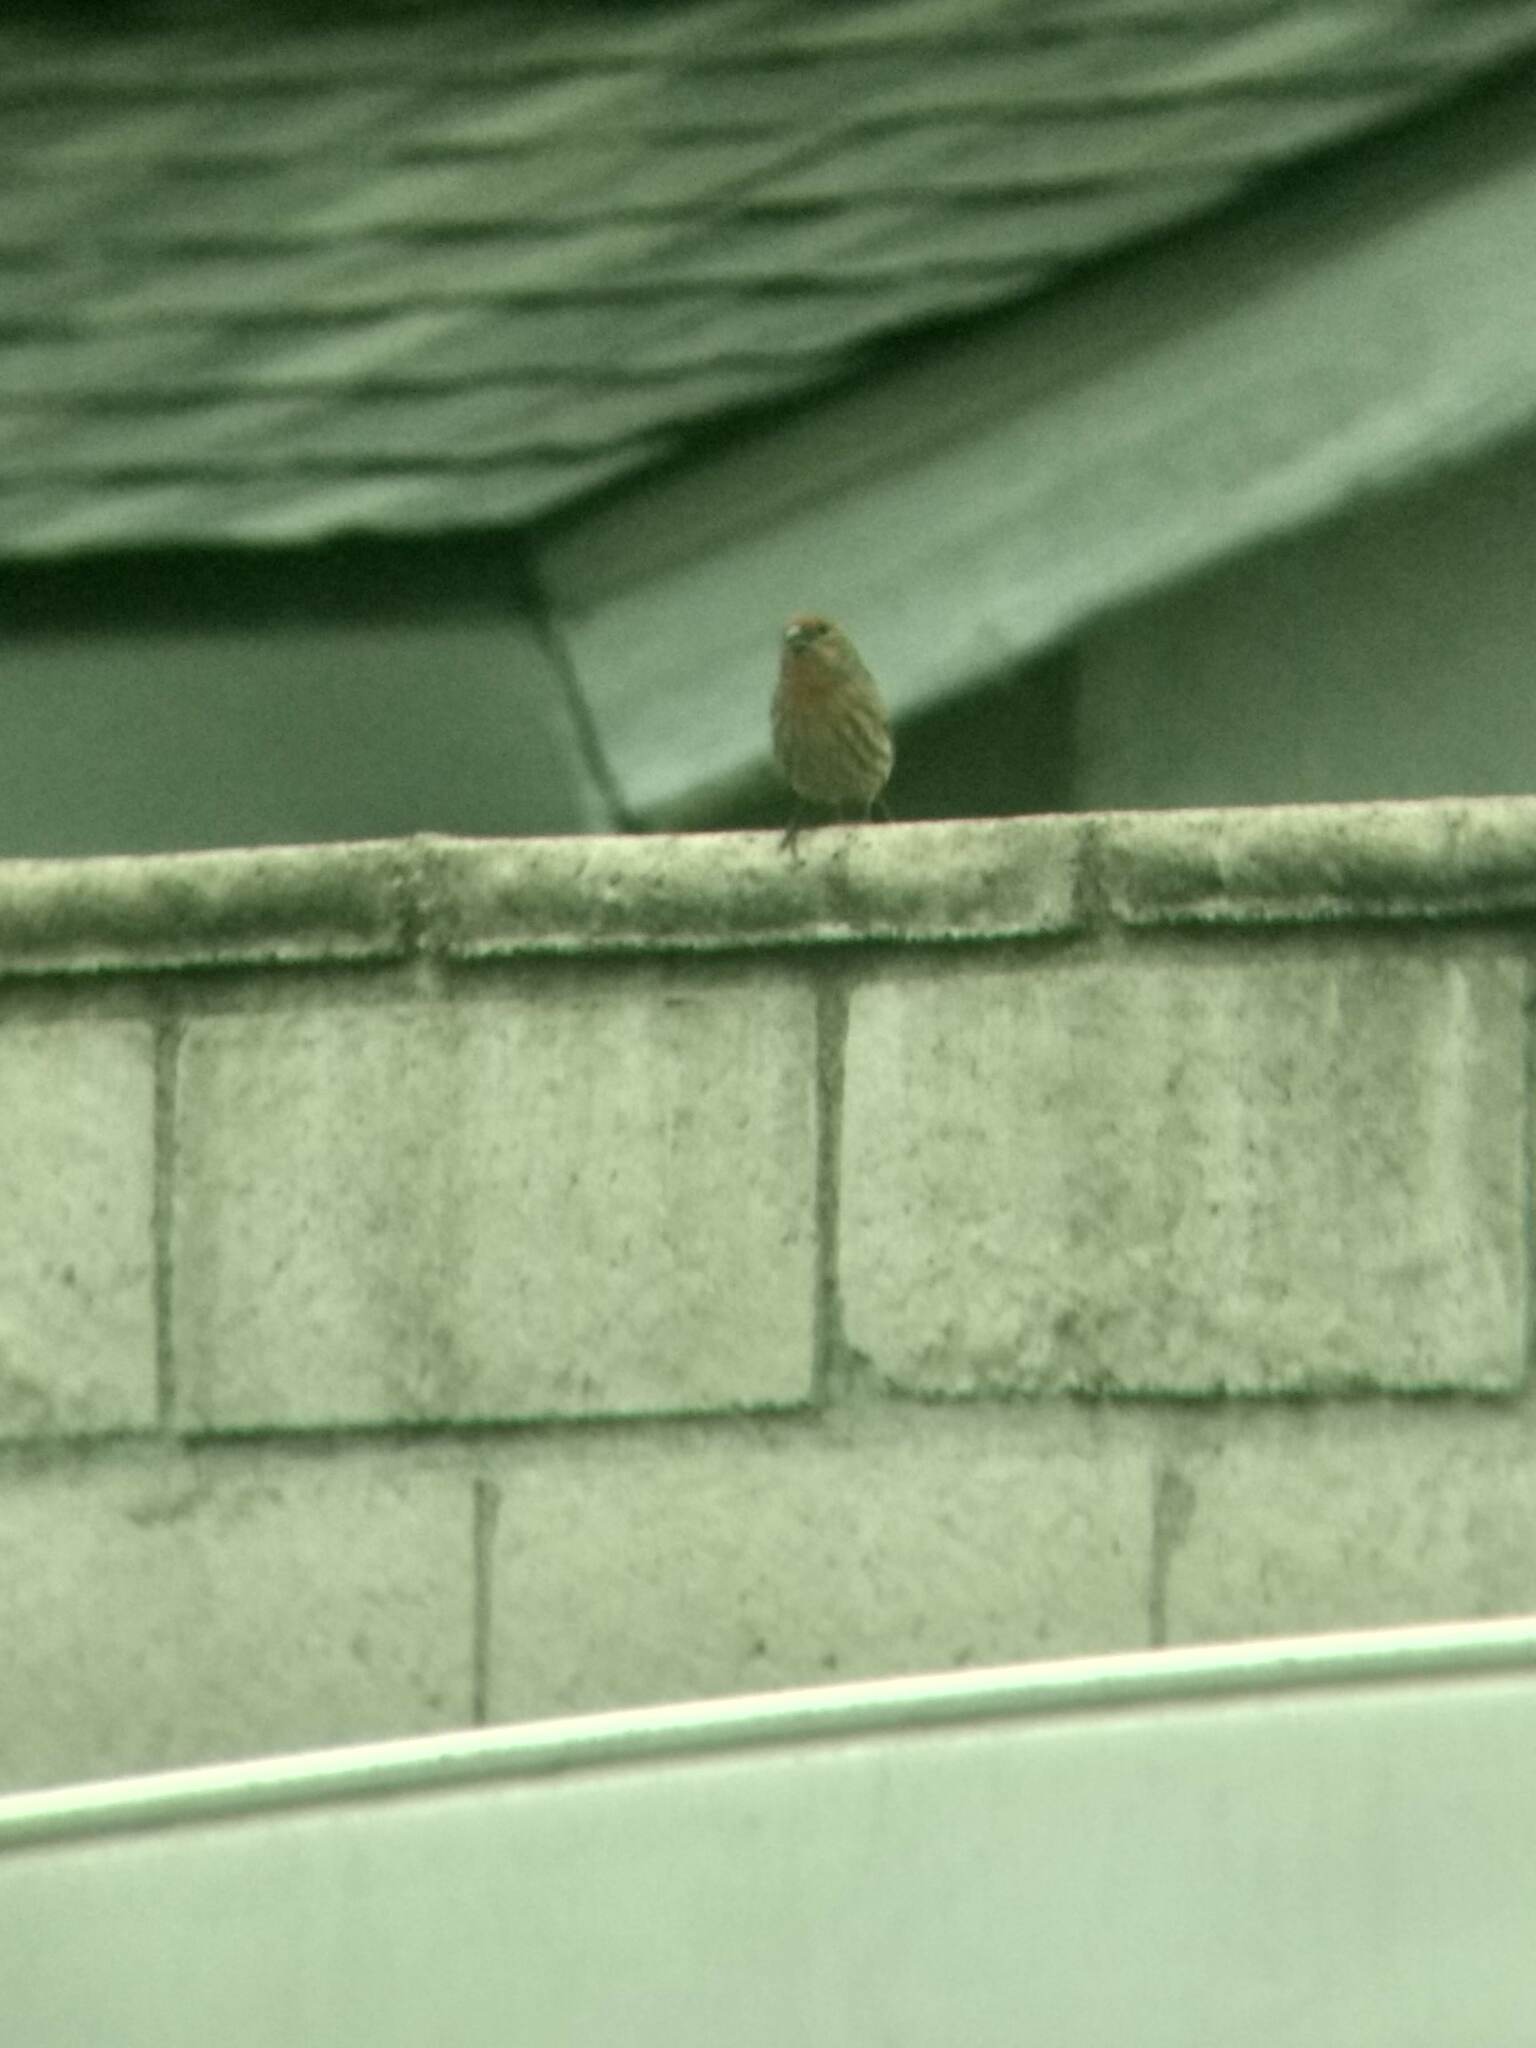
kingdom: Animalia
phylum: Chordata
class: Aves
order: Passeriformes
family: Fringillidae
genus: Haemorhous
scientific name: Haemorhous mexicanus
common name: House finch
